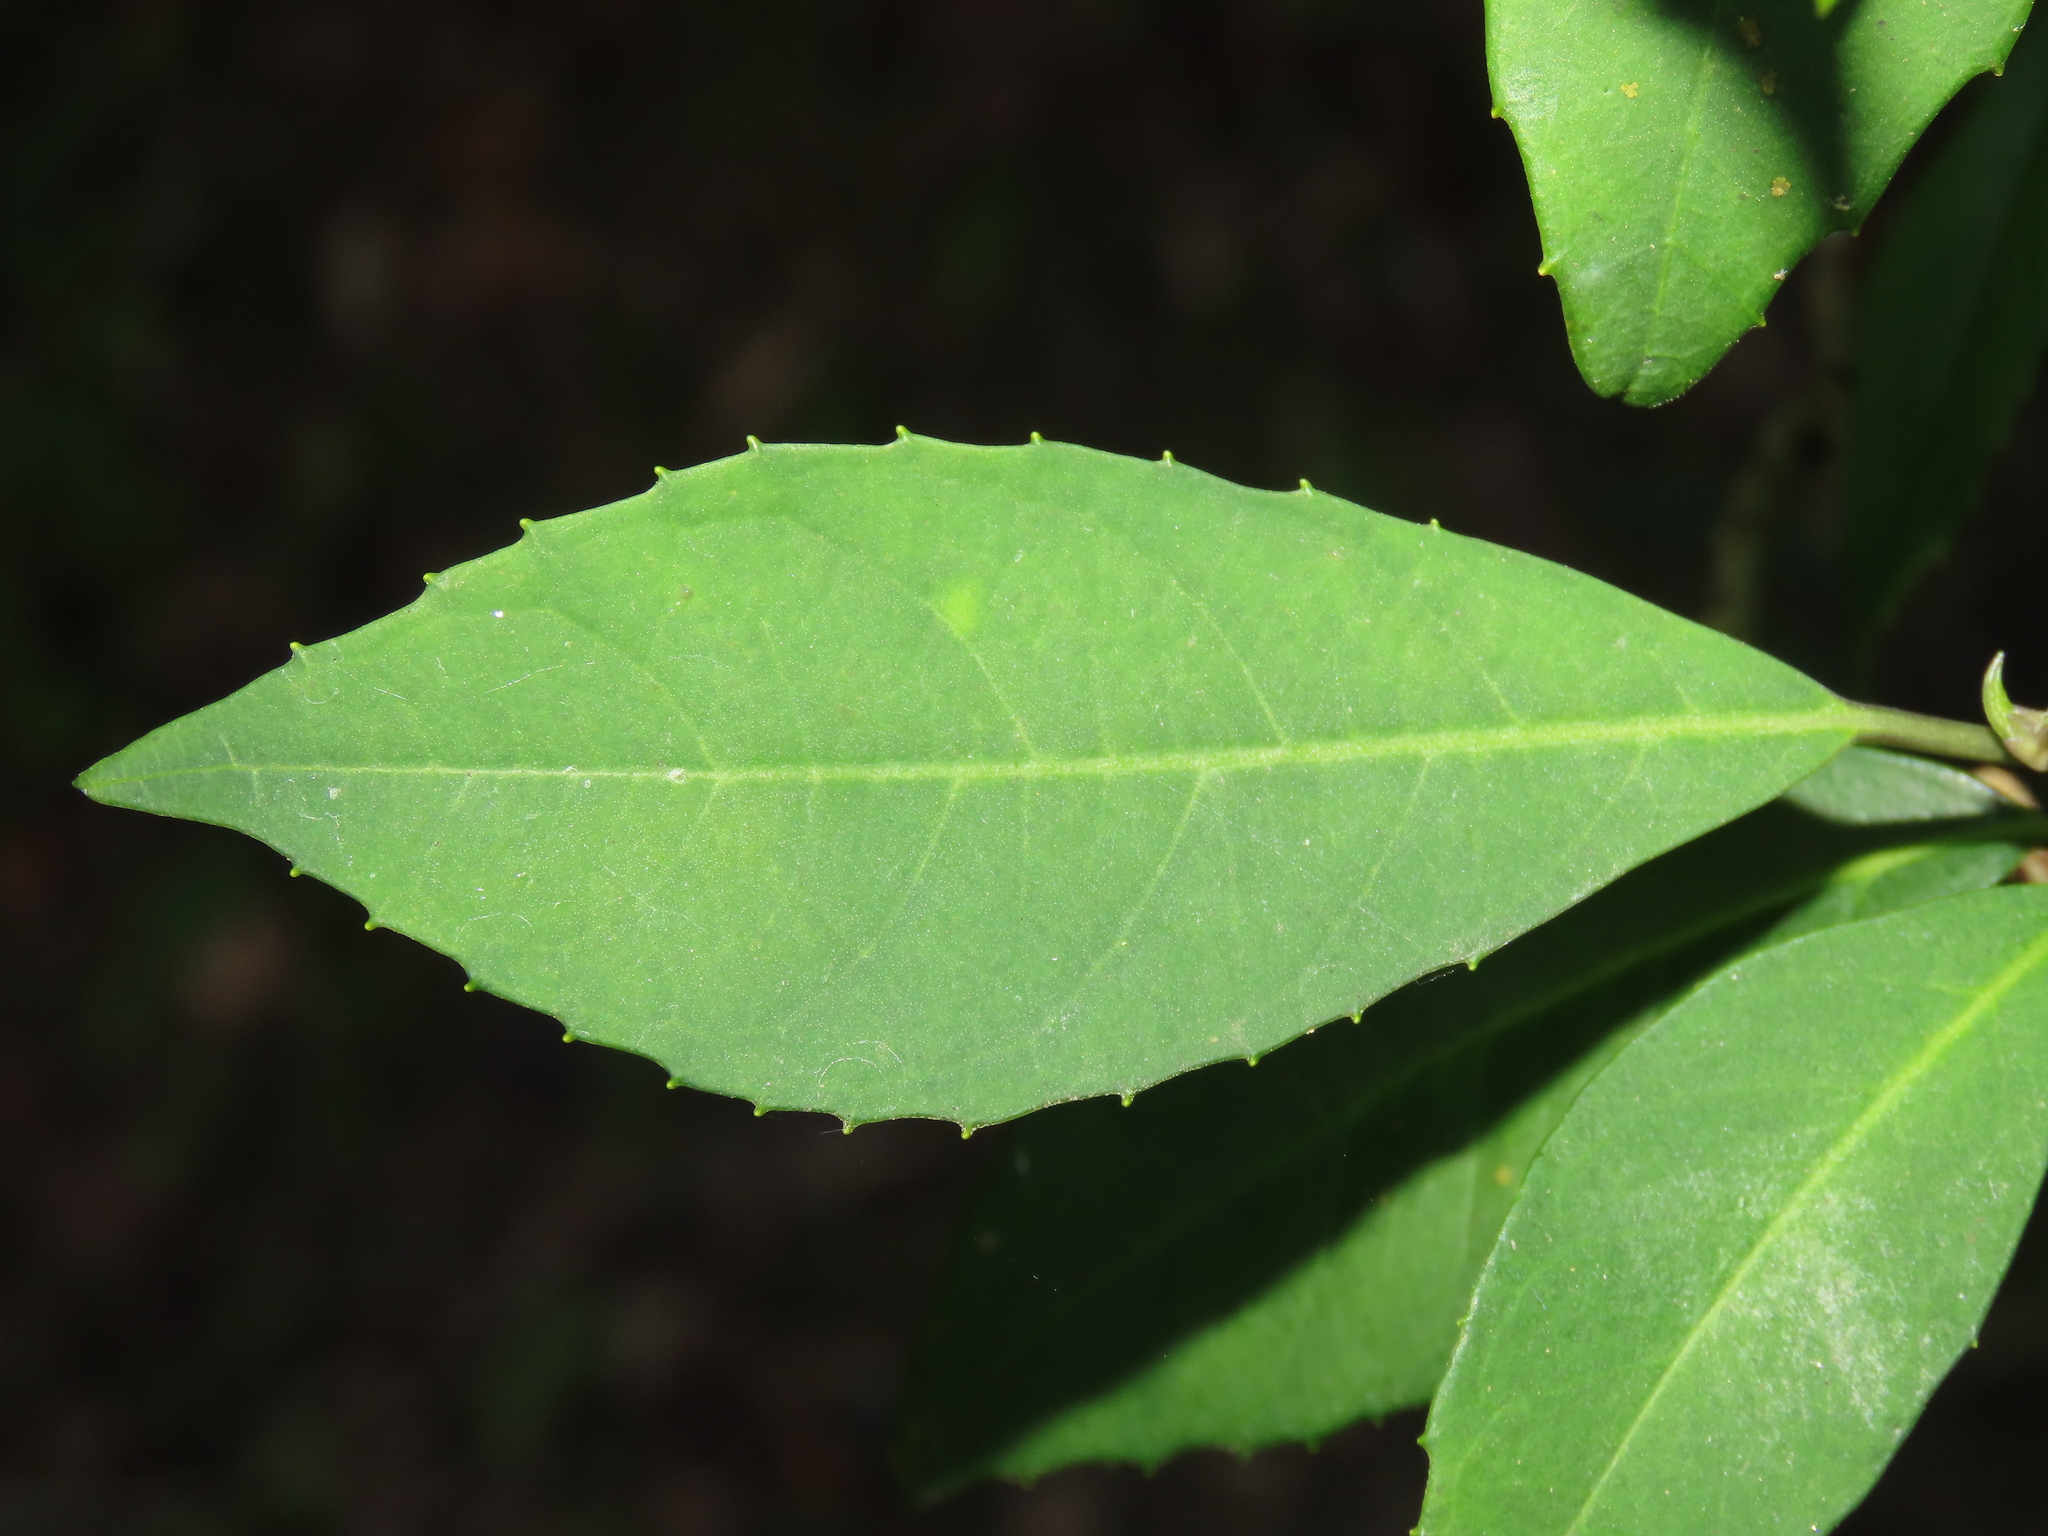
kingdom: Plantae
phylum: Tracheophyta
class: Magnoliopsida
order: Cornales
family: Hydrangeaceae
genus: Hydrangea
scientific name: Hydrangea chinensis
